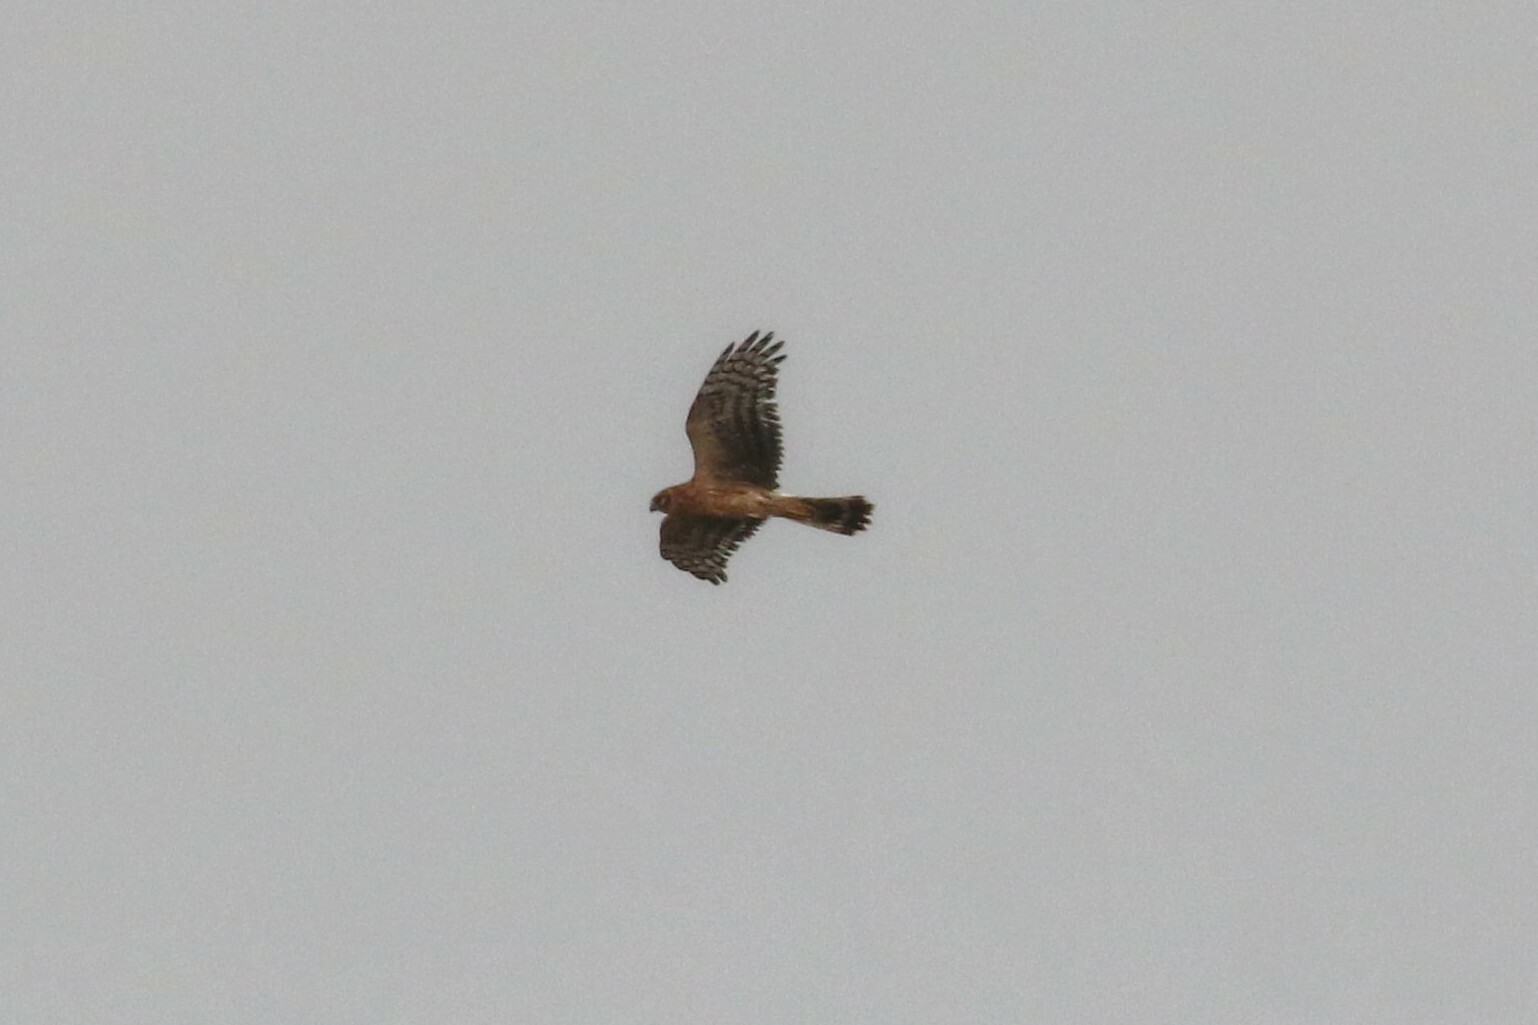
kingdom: Animalia
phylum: Chordata
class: Aves
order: Accipitriformes
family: Accipitridae
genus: Circus
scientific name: Circus cyaneus
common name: Hen harrier
